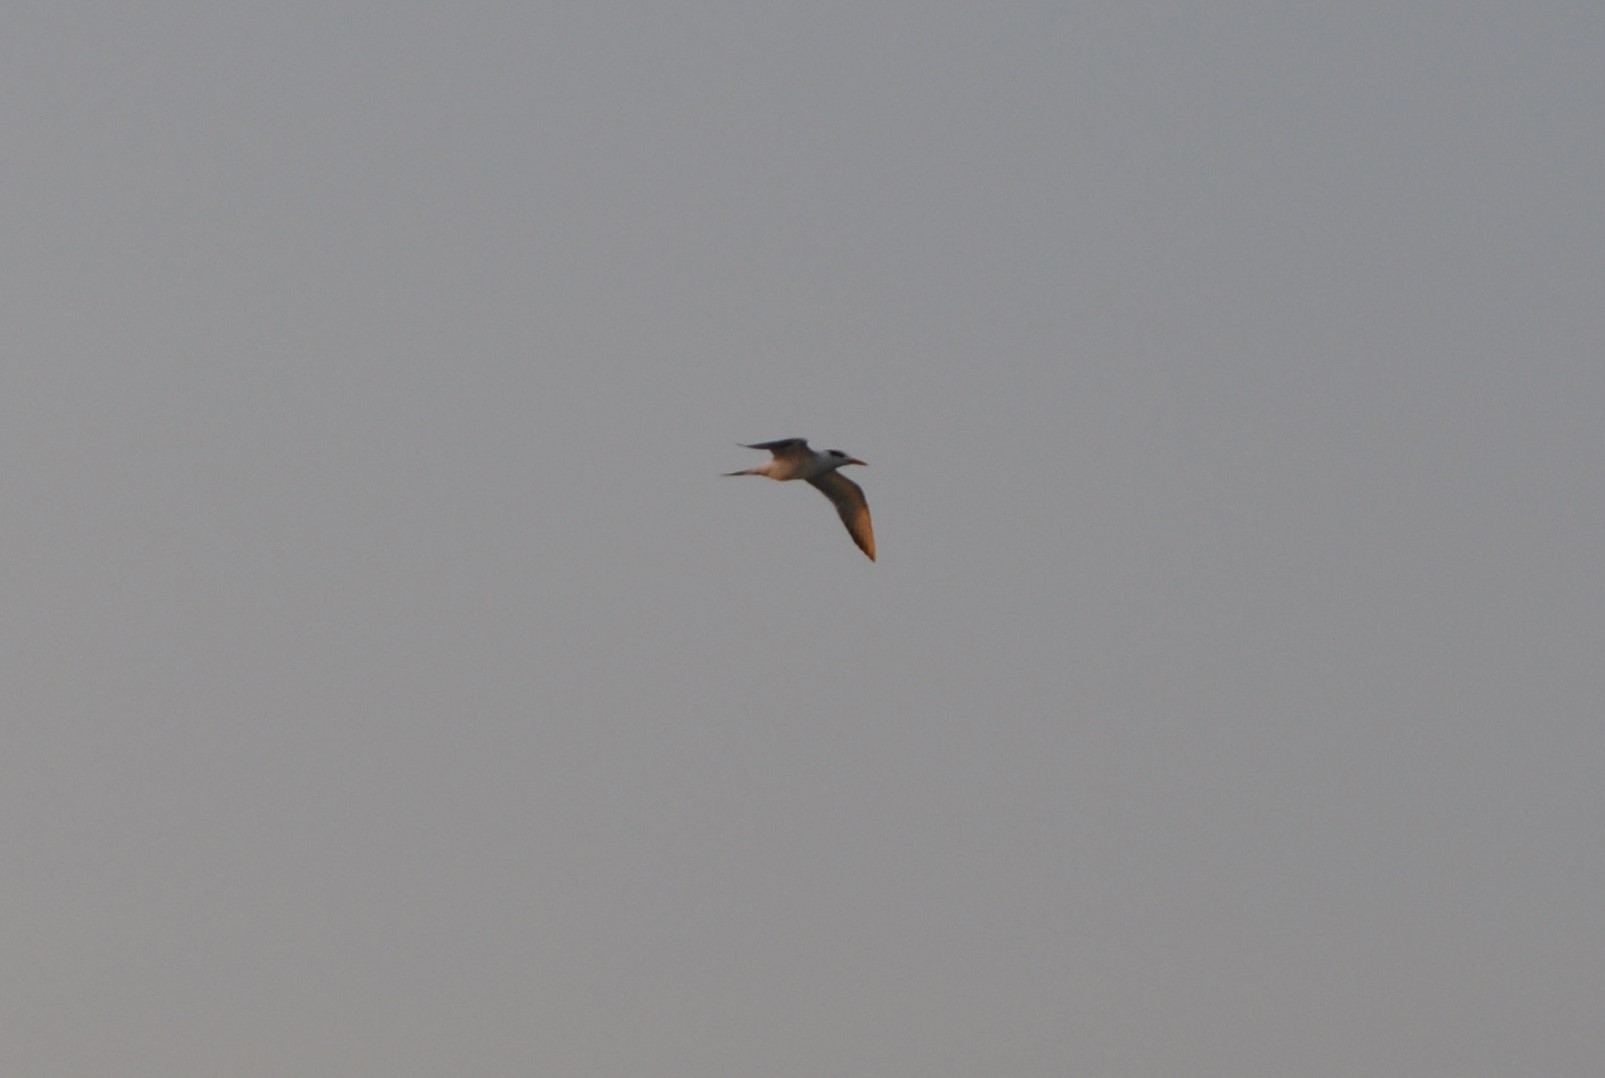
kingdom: Animalia
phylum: Chordata
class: Aves
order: Charadriiformes
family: Laridae
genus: Thalasseus
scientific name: Thalasseus maximus
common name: Royal tern
